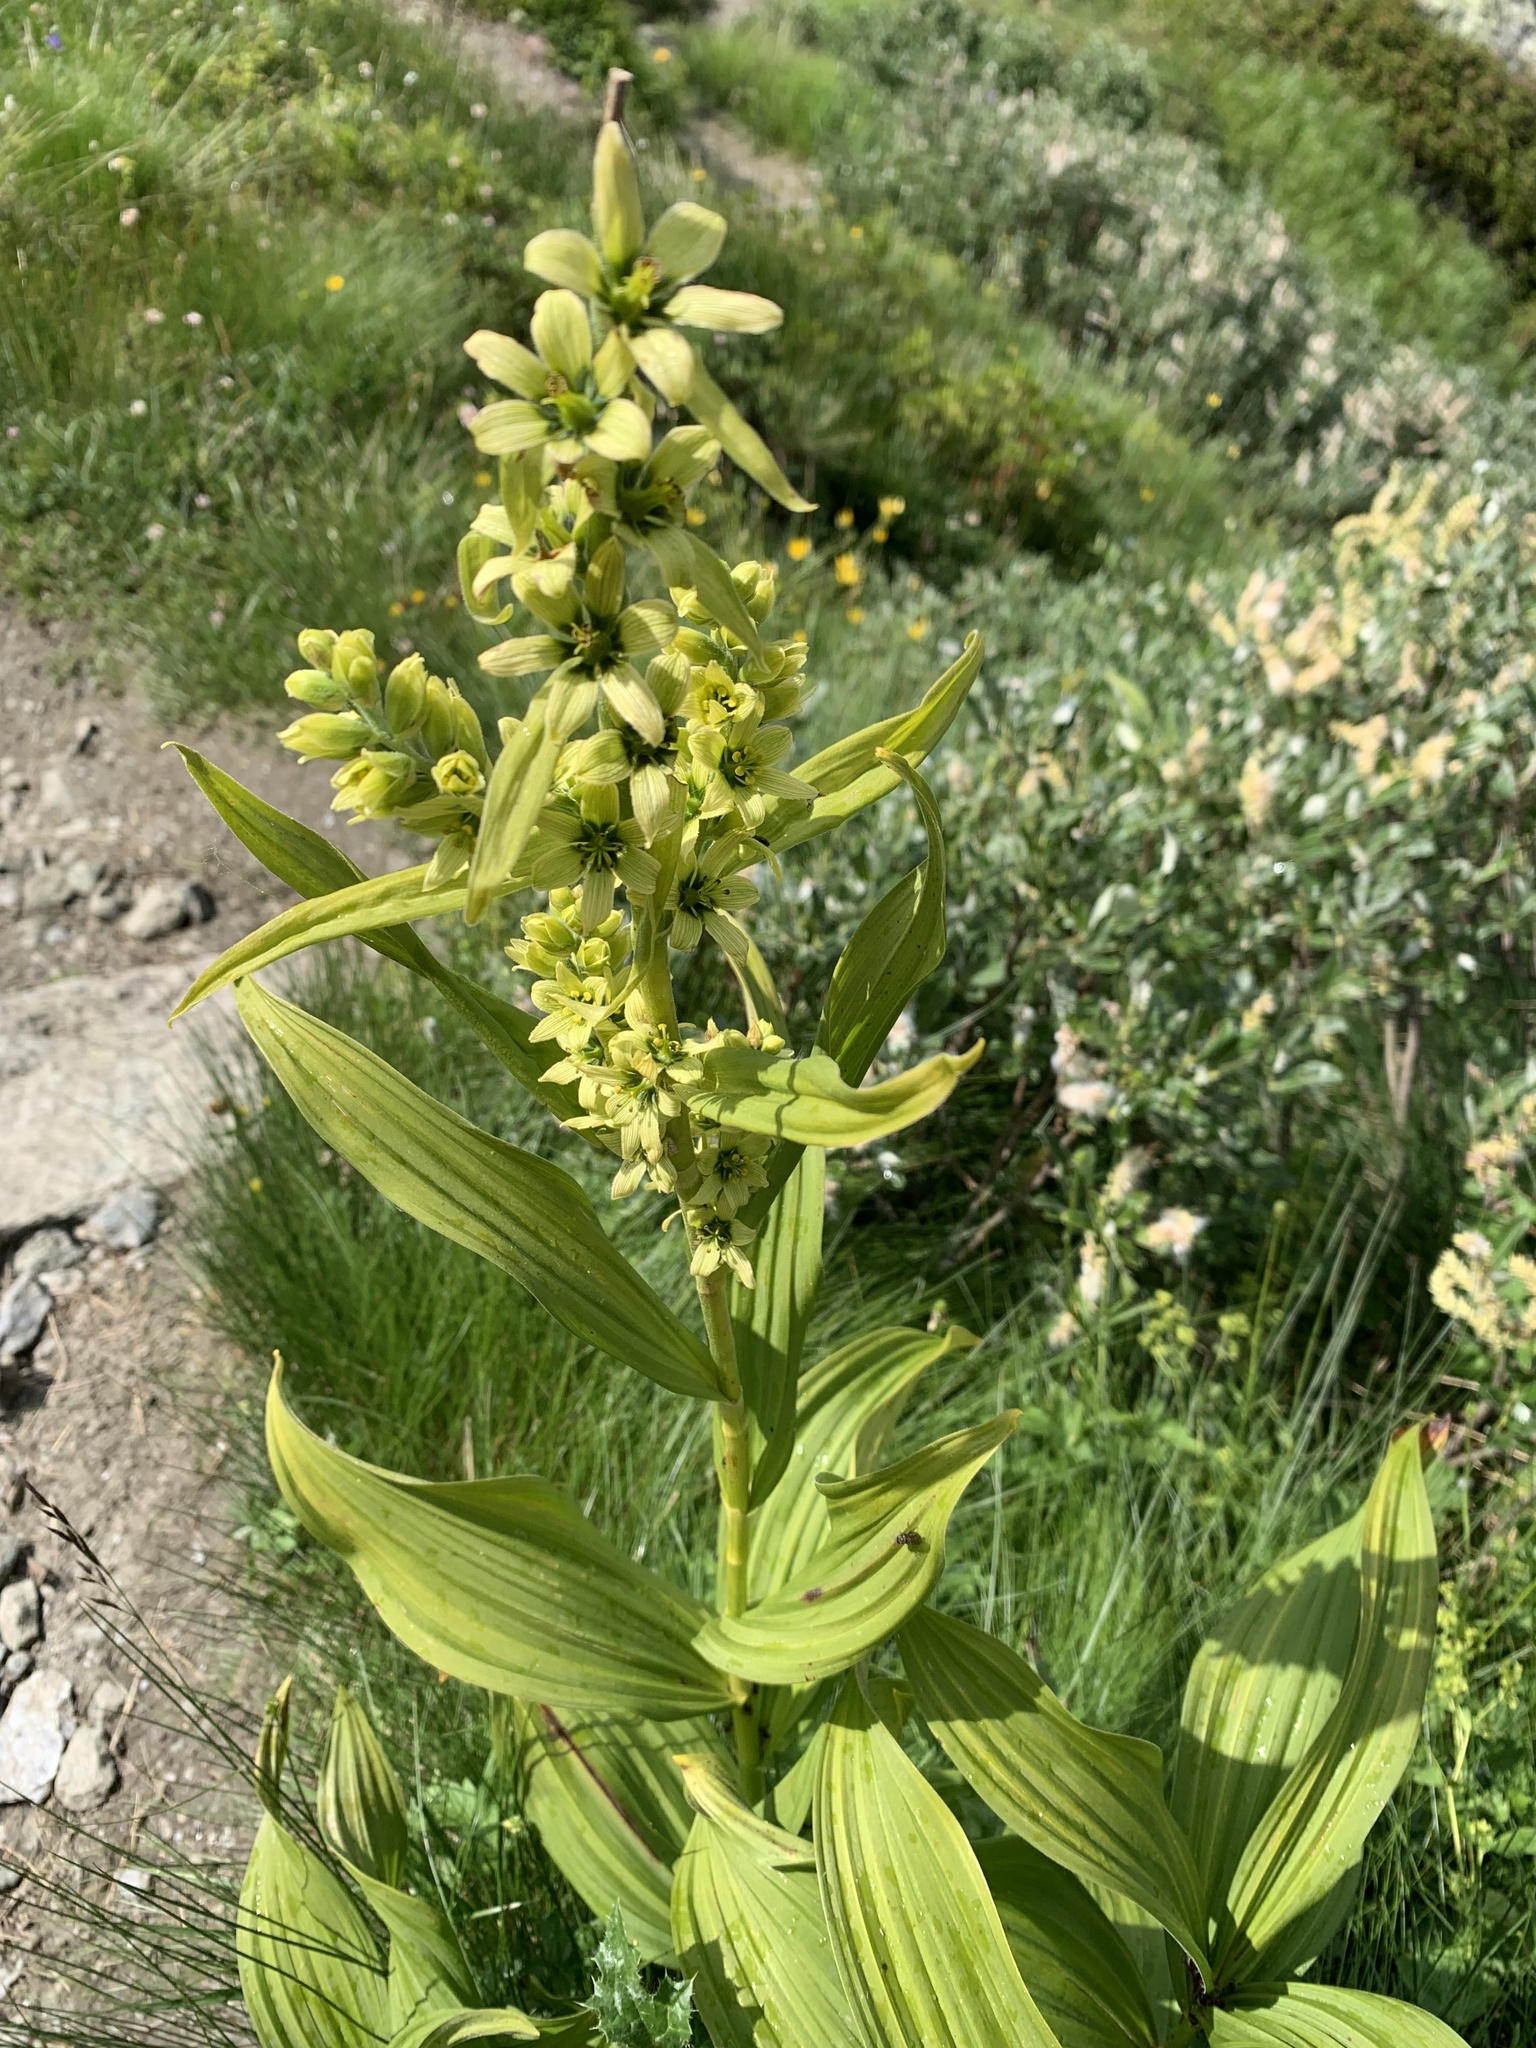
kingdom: Plantae
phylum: Tracheophyta
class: Liliopsida
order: Liliales
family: Melanthiaceae
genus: Veratrum
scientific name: Veratrum album
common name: White veratrum
